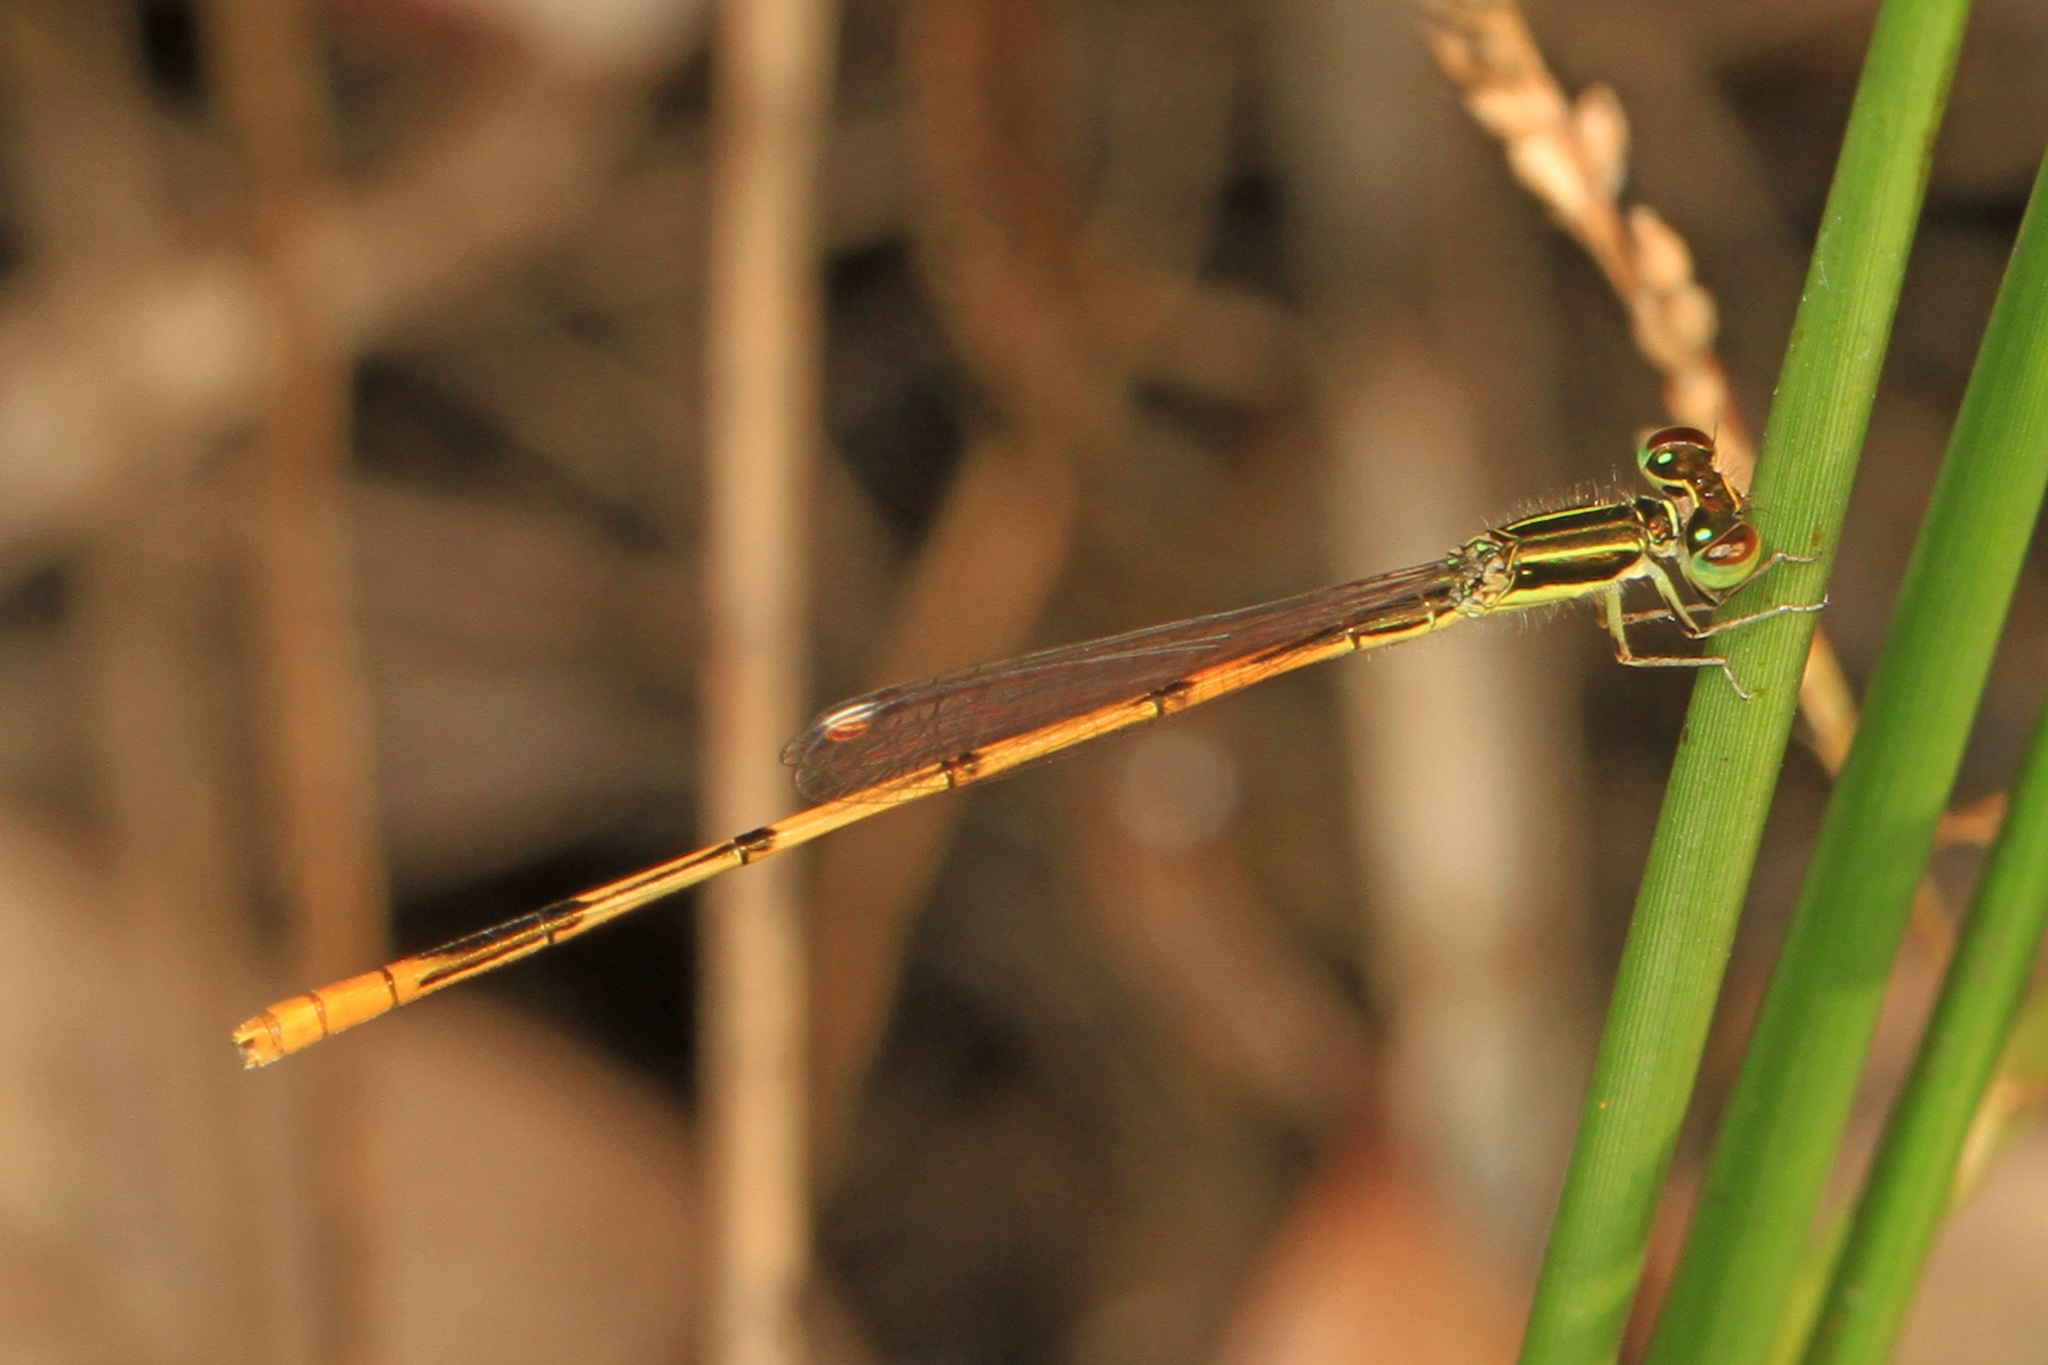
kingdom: Animalia
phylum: Arthropoda
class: Insecta
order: Odonata
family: Coenagrionidae
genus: Ischnura
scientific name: Ischnura hastata
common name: Citrine forktail
